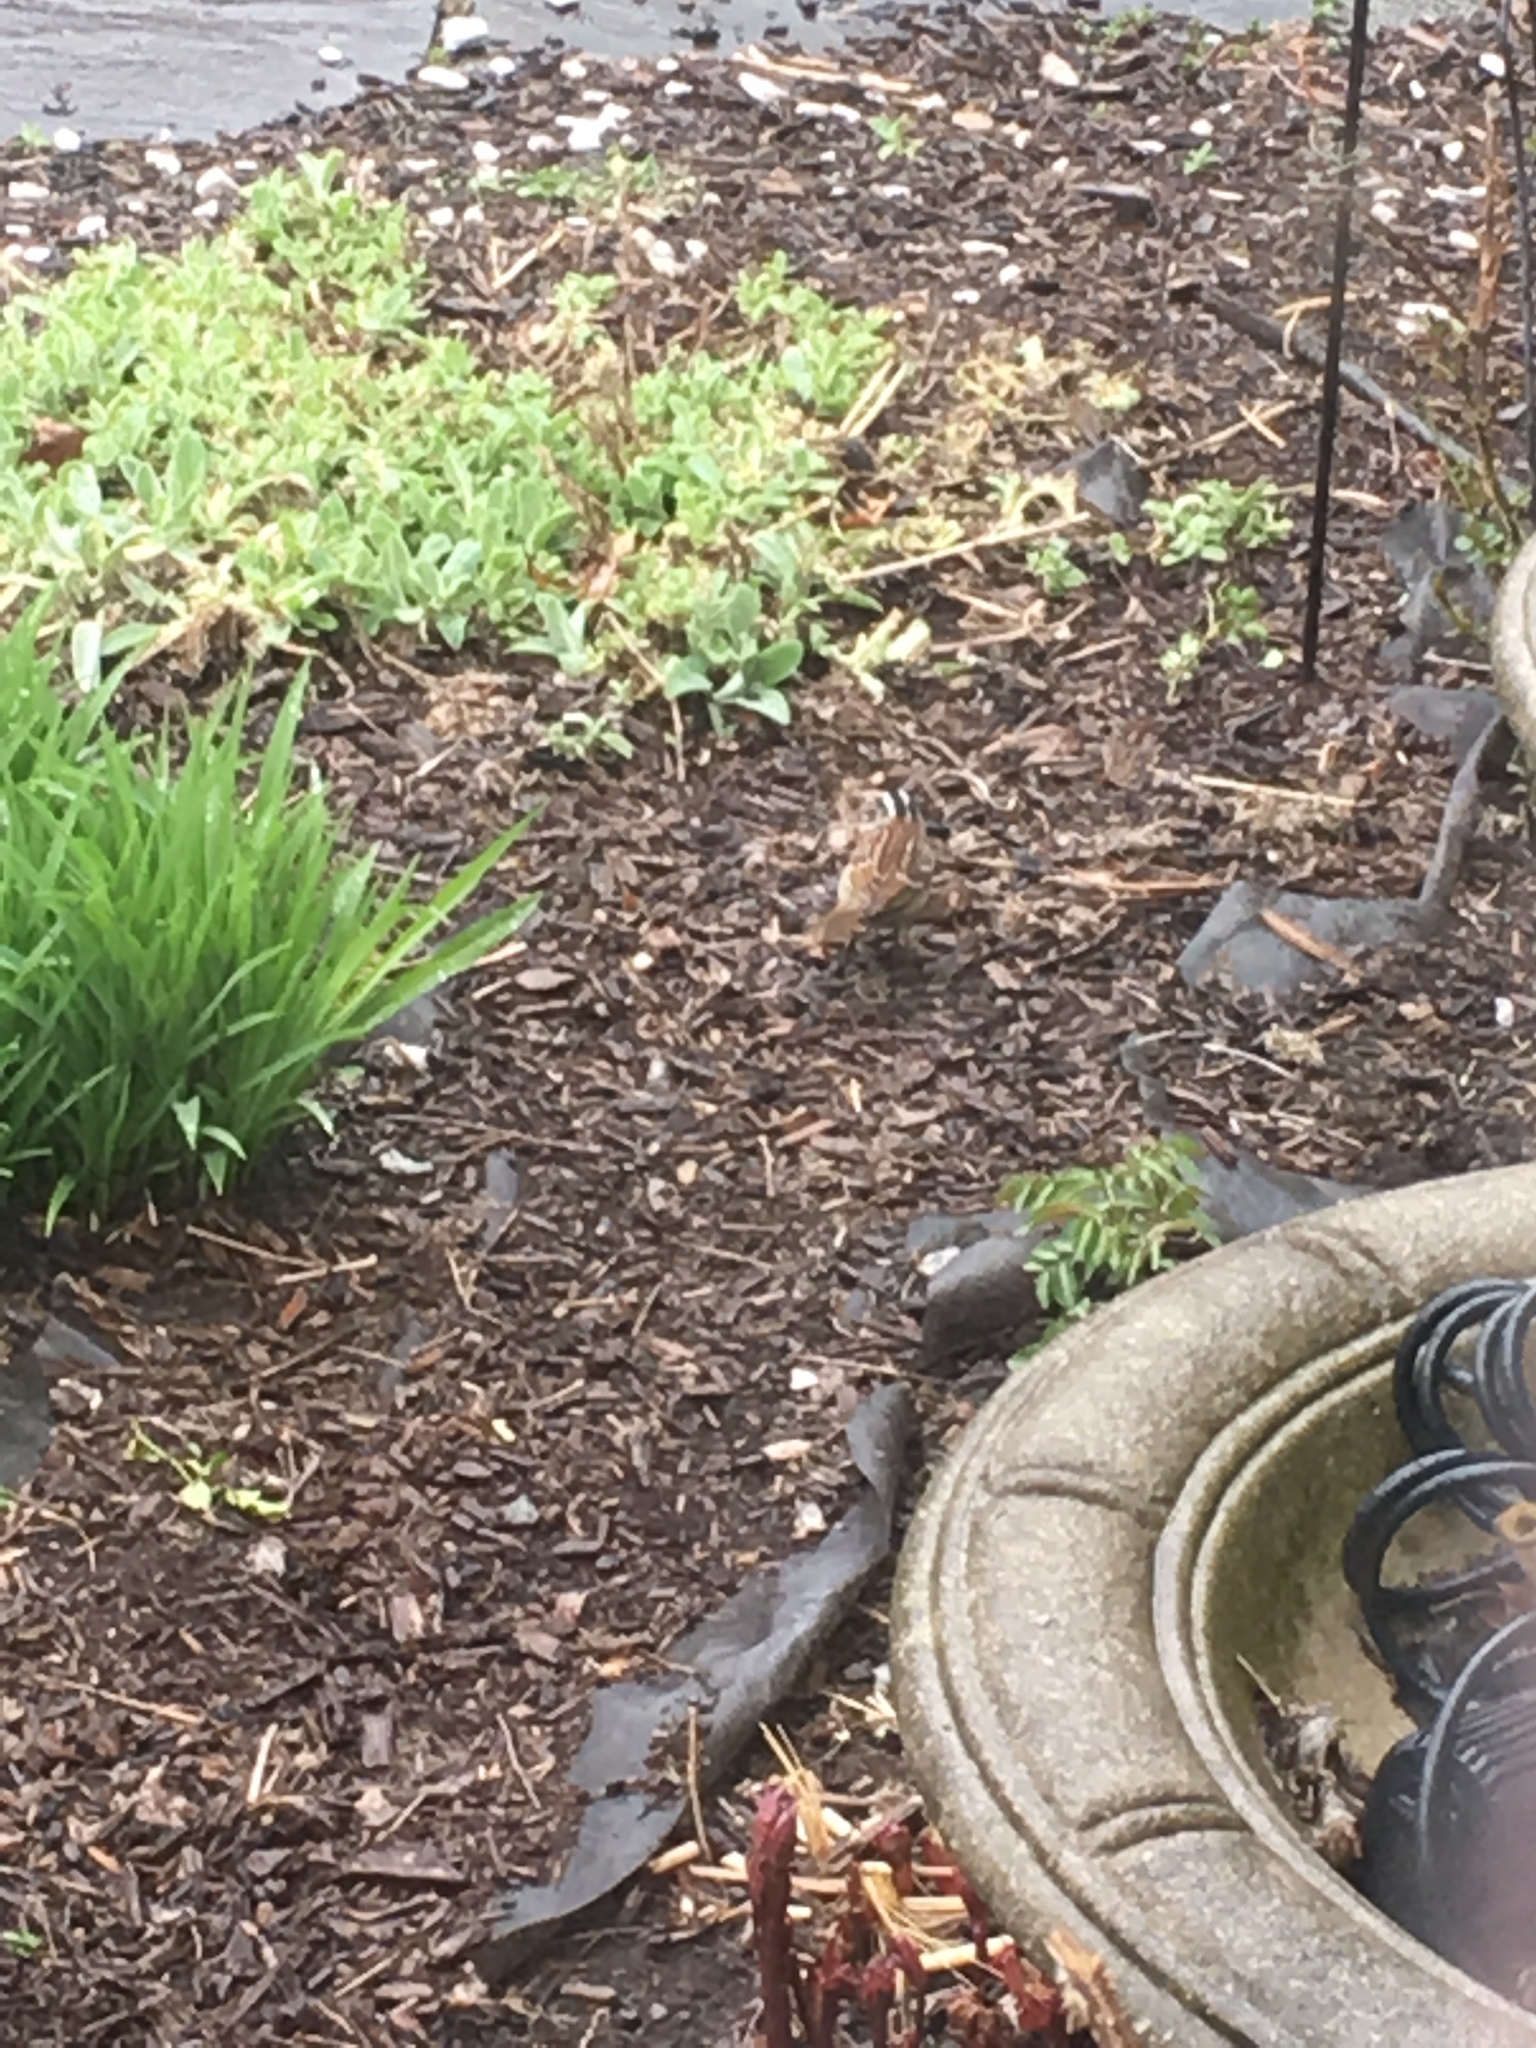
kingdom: Animalia
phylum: Chordata
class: Aves
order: Passeriformes
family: Passerellidae
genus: Zonotrichia
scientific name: Zonotrichia albicollis
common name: White-throated sparrow
